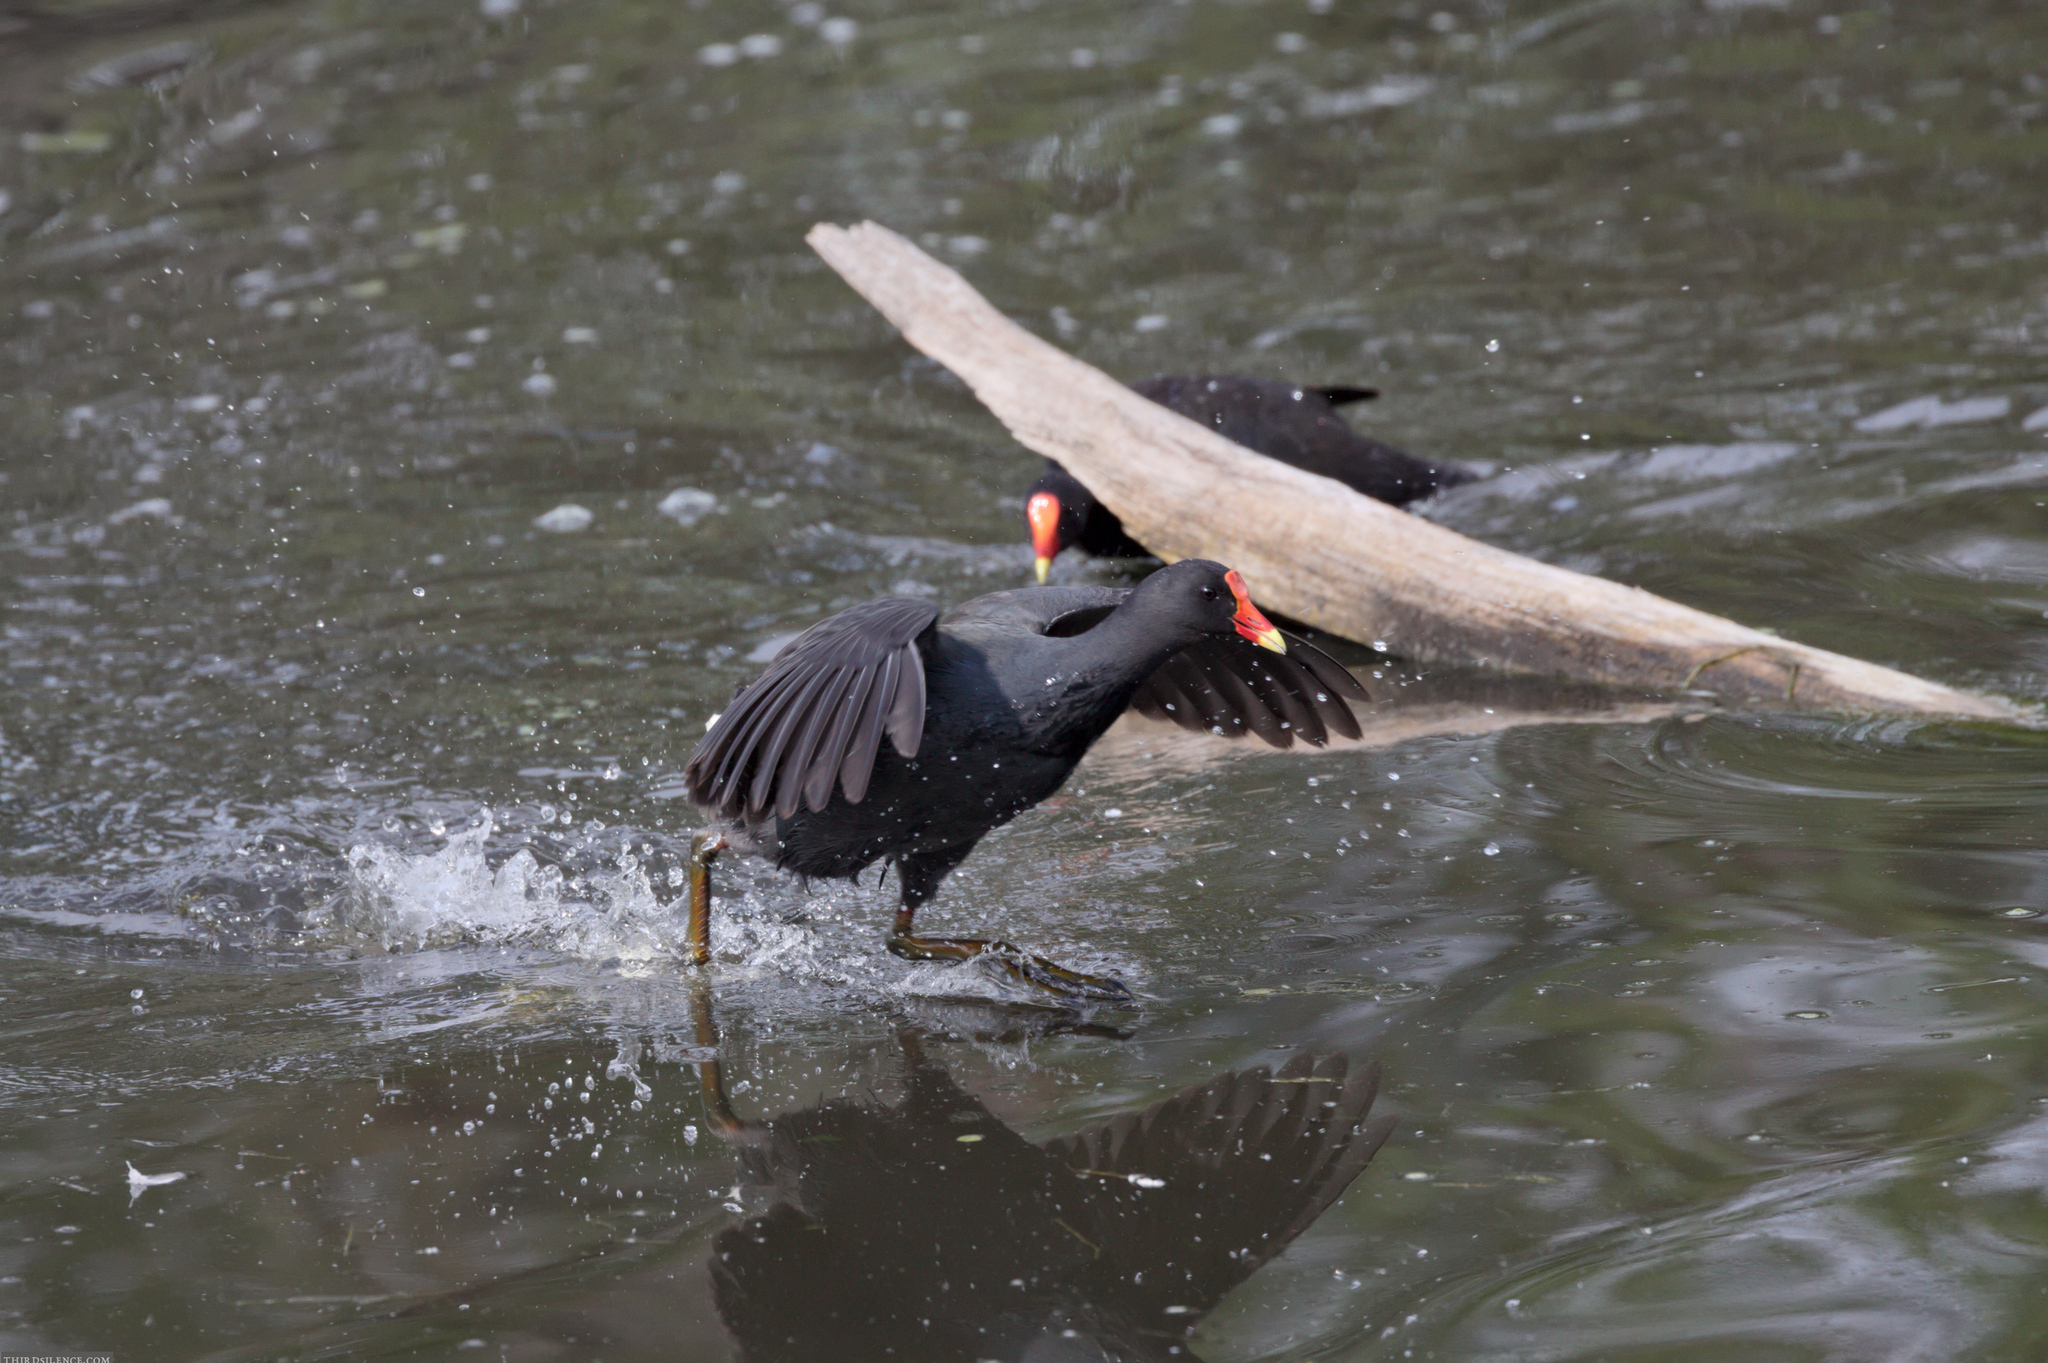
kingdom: Animalia
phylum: Chordata
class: Aves
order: Gruiformes
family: Rallidae
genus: Gallinula
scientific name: Gallinula tenebrosa
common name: Dusky moorhen
